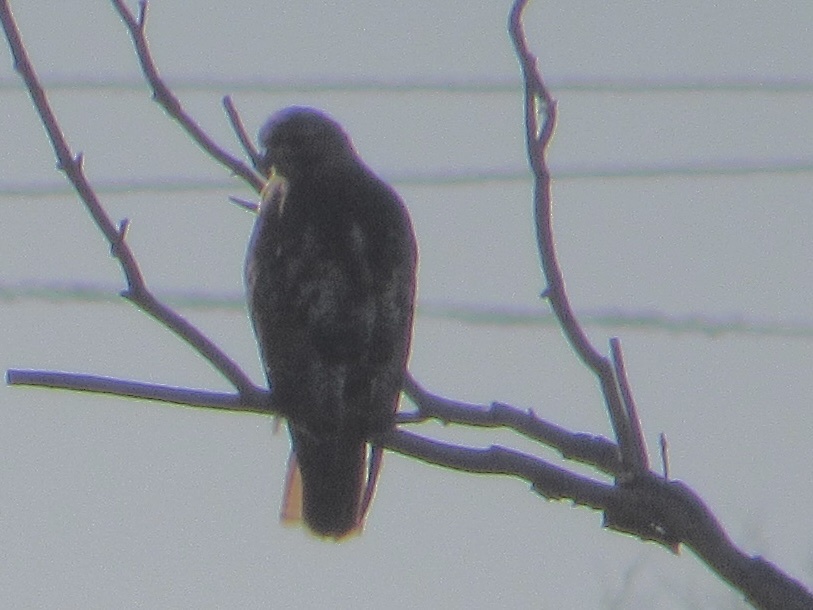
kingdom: Animalia
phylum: Chordata
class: Aves
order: Accipitriformes
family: Accipitridae
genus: Buteo
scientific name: Buteo jamaicensis
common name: Red-tailed hawk
